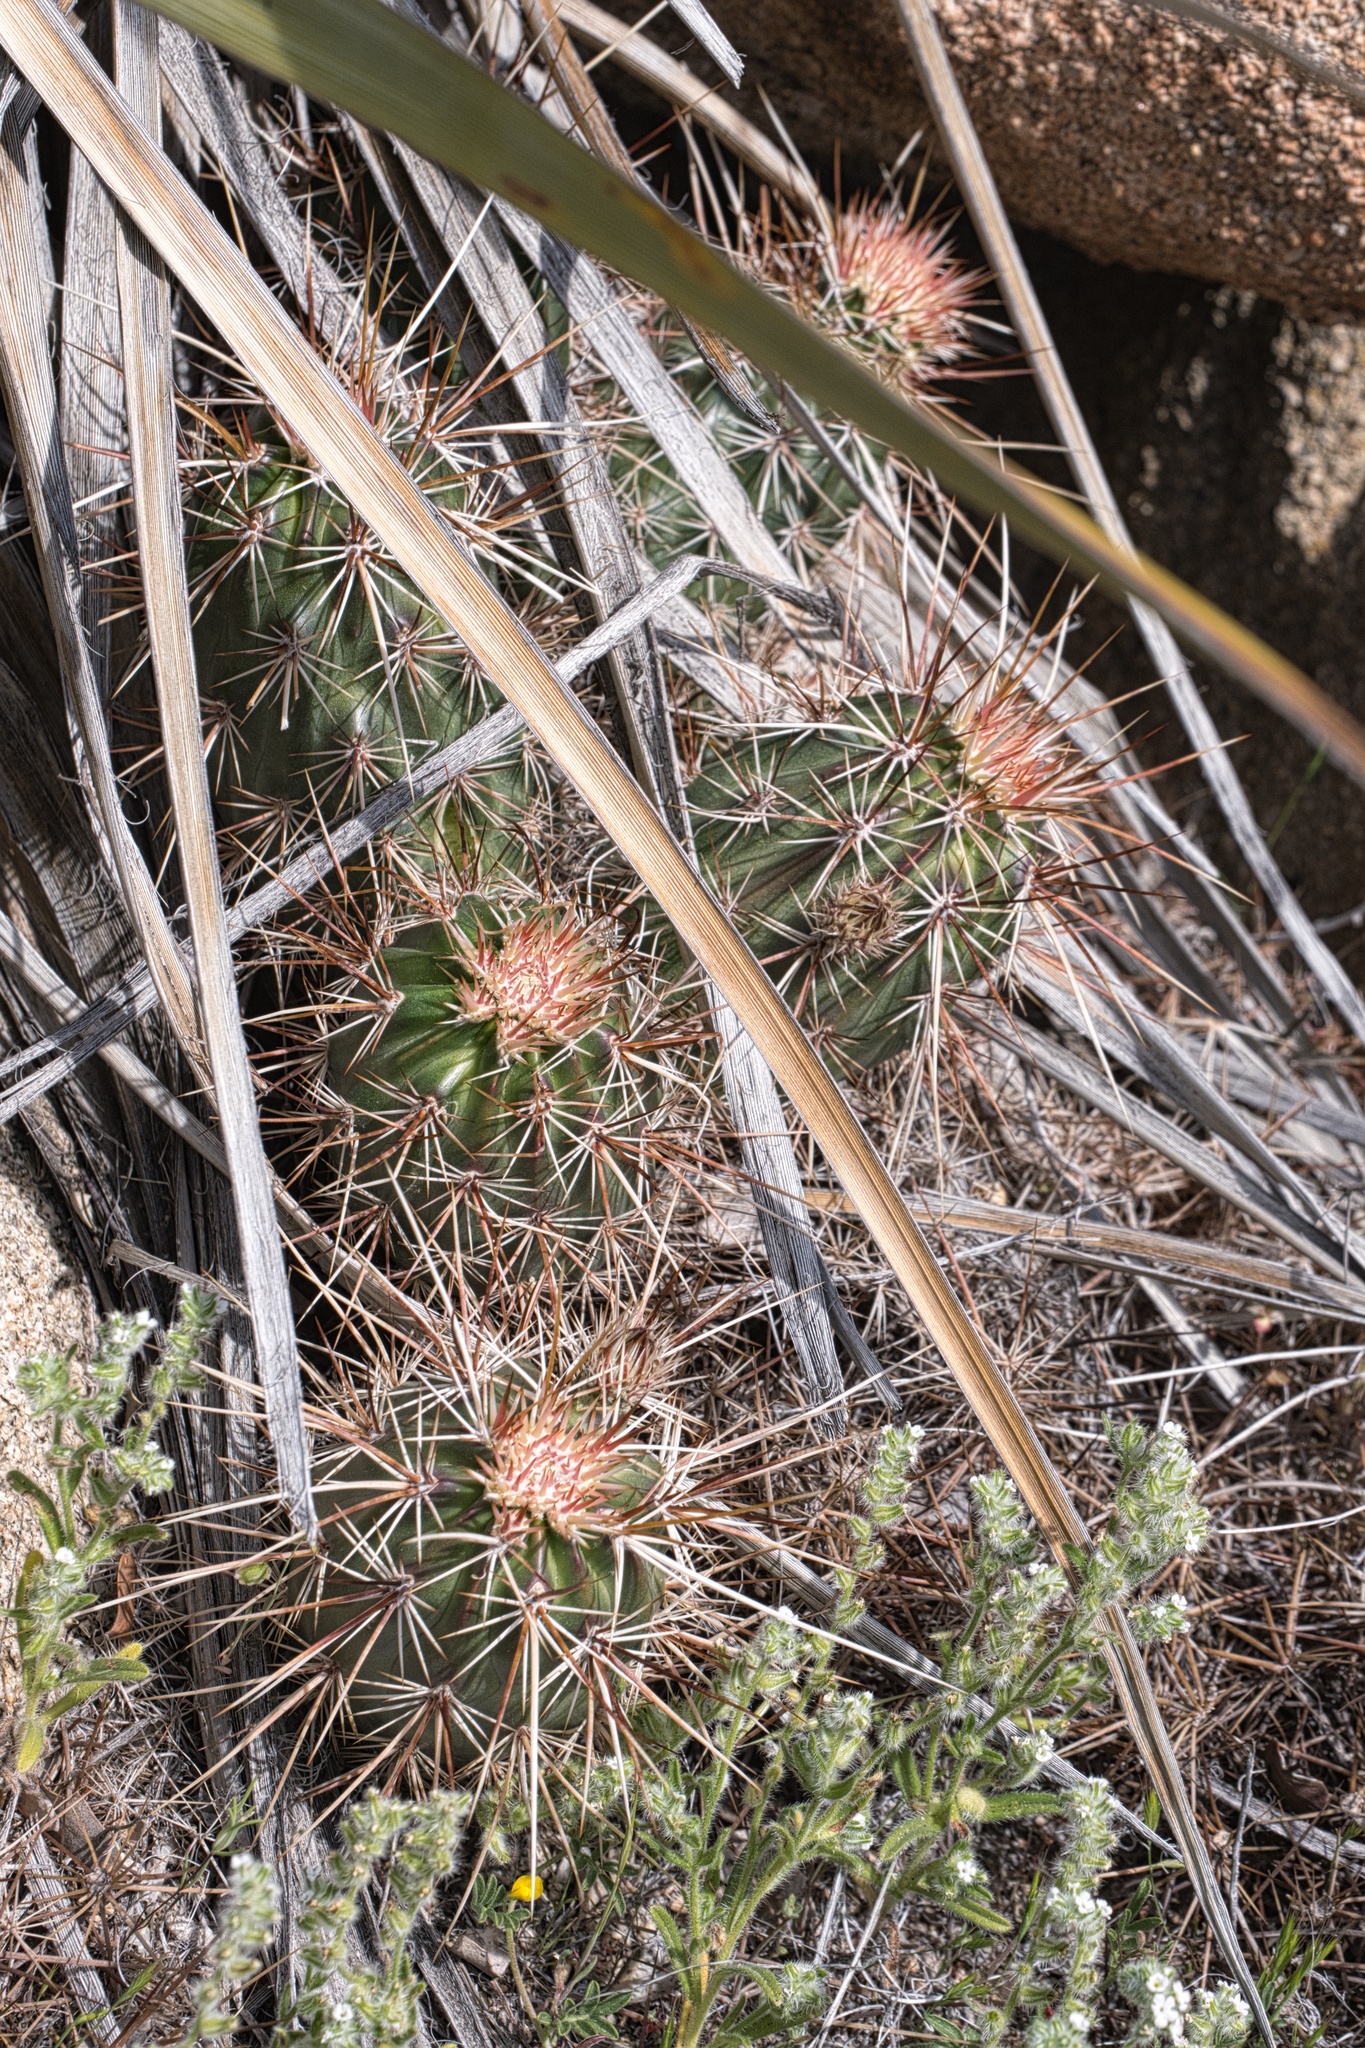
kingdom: Plantae
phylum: Tracheophyta
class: Magnoliopsida
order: Caryophyllales
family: Cactaceae
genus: Echinocereus
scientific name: Echinocereus engelmannii
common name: Engelmann's hedgehog cactus
